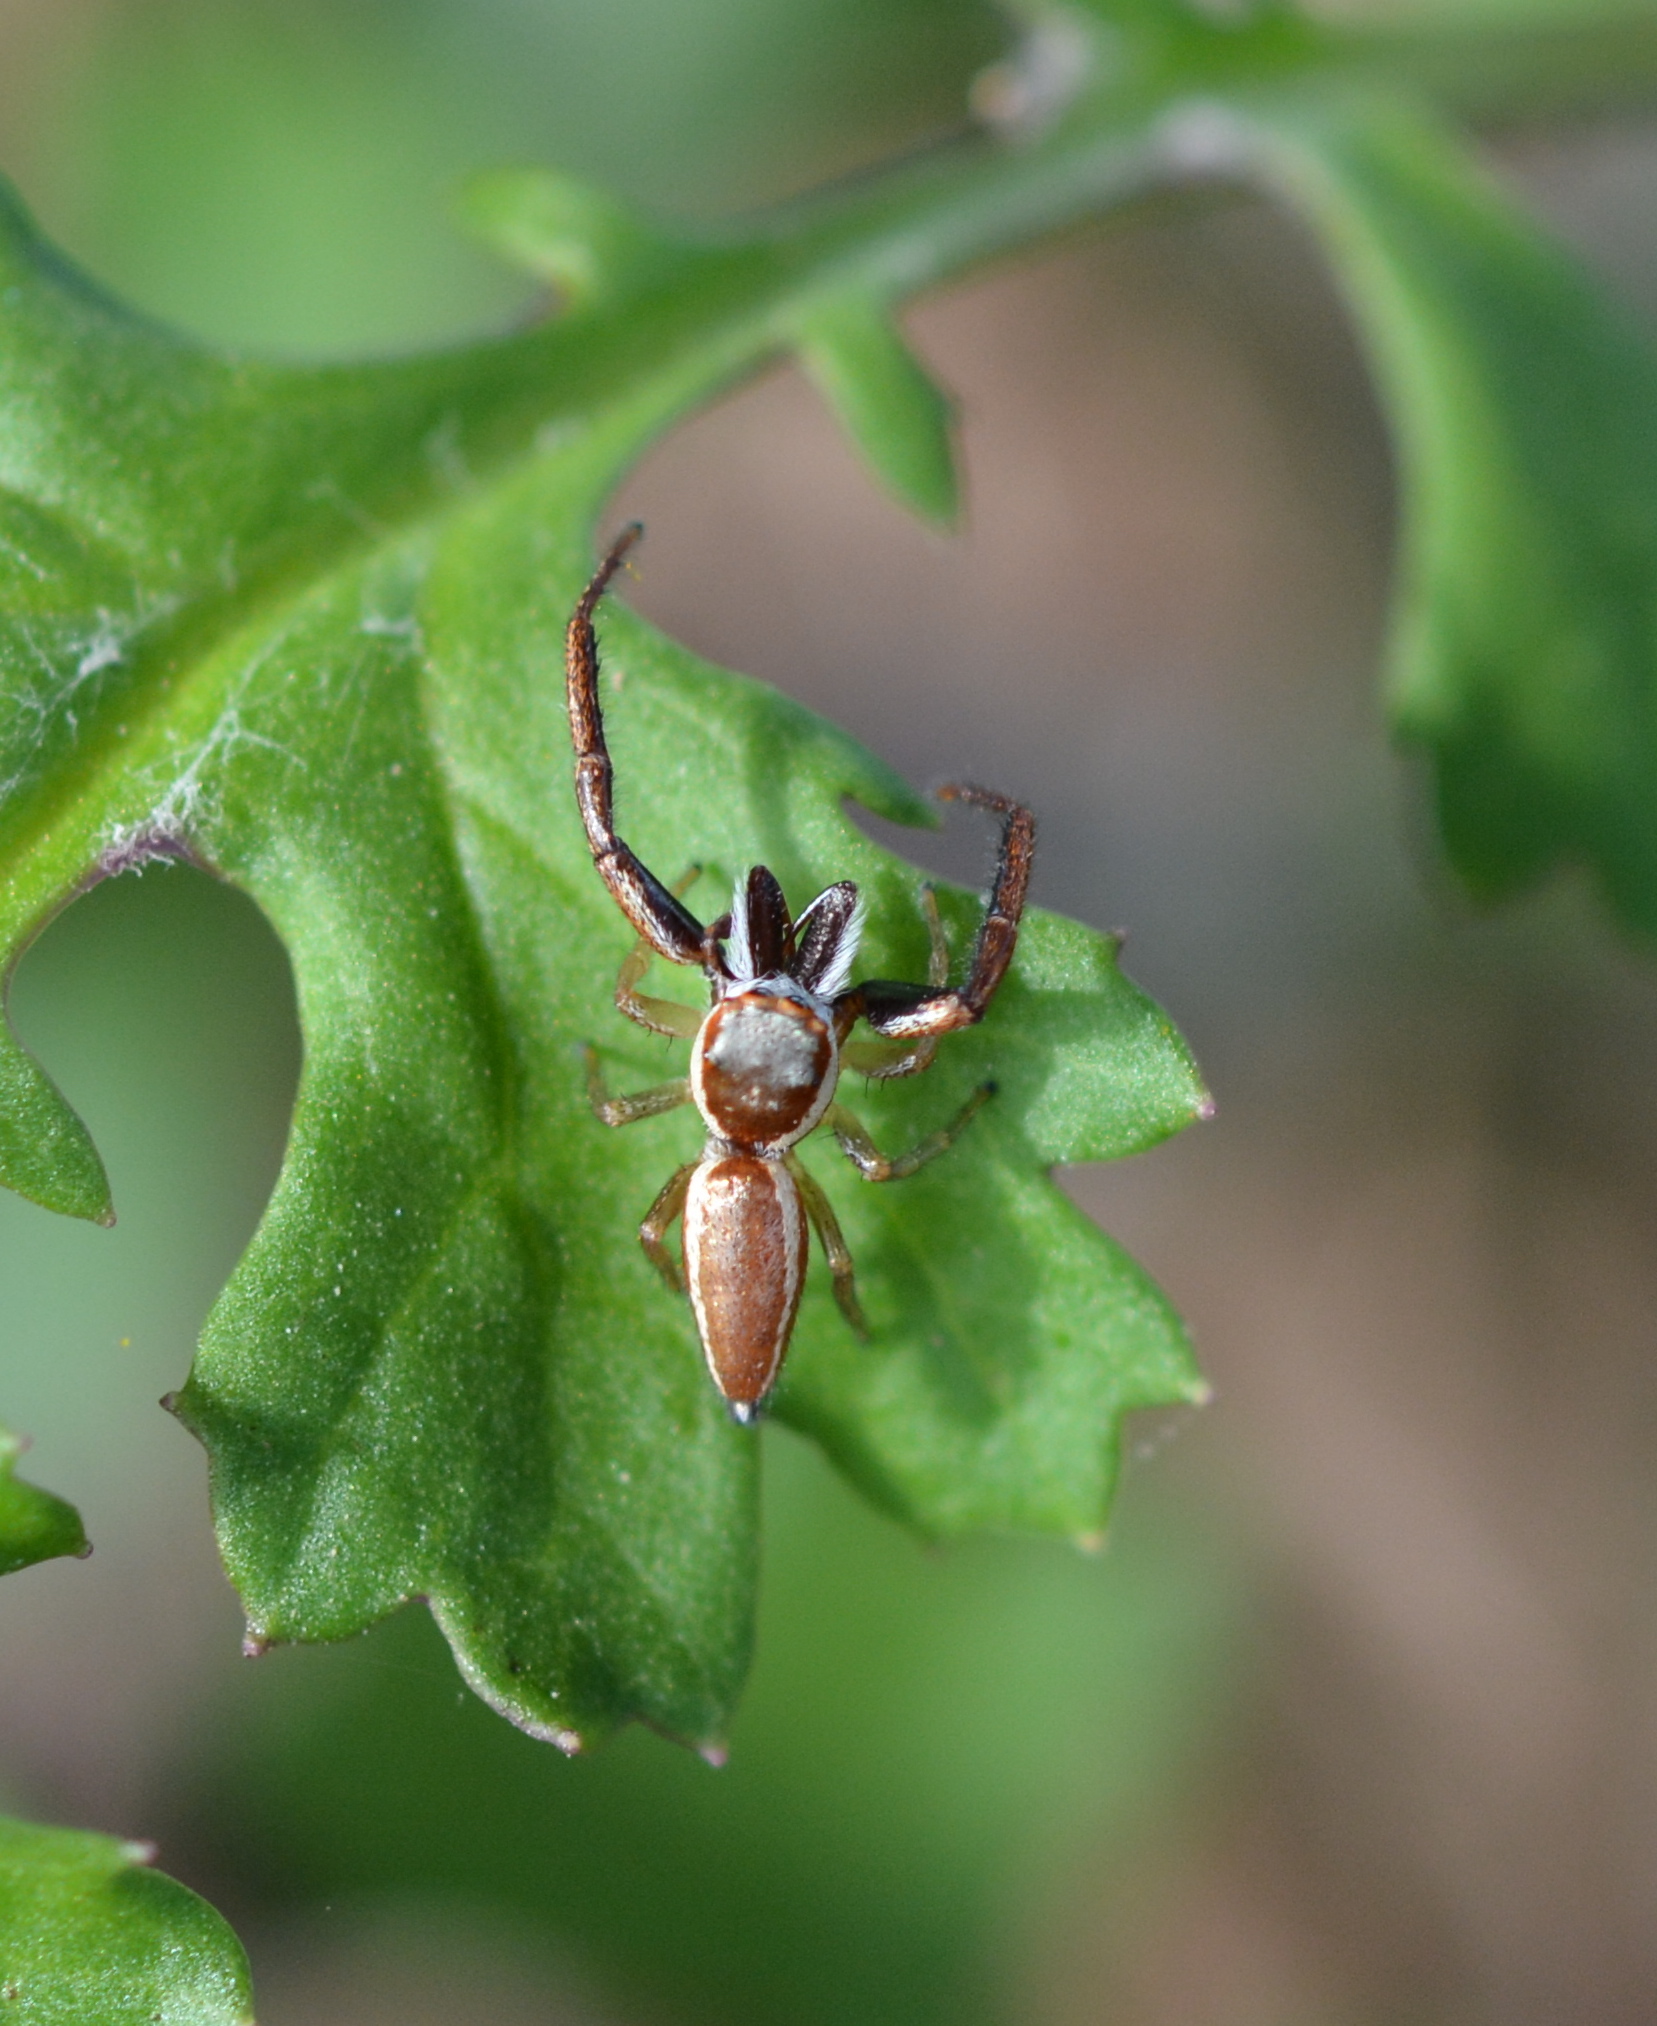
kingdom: Animalia
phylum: Arthropoda
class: Arachnida
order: Araneae
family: Salticidae
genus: Hentzia
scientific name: Hentzia palmarum
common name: Common hentz jumping spider
